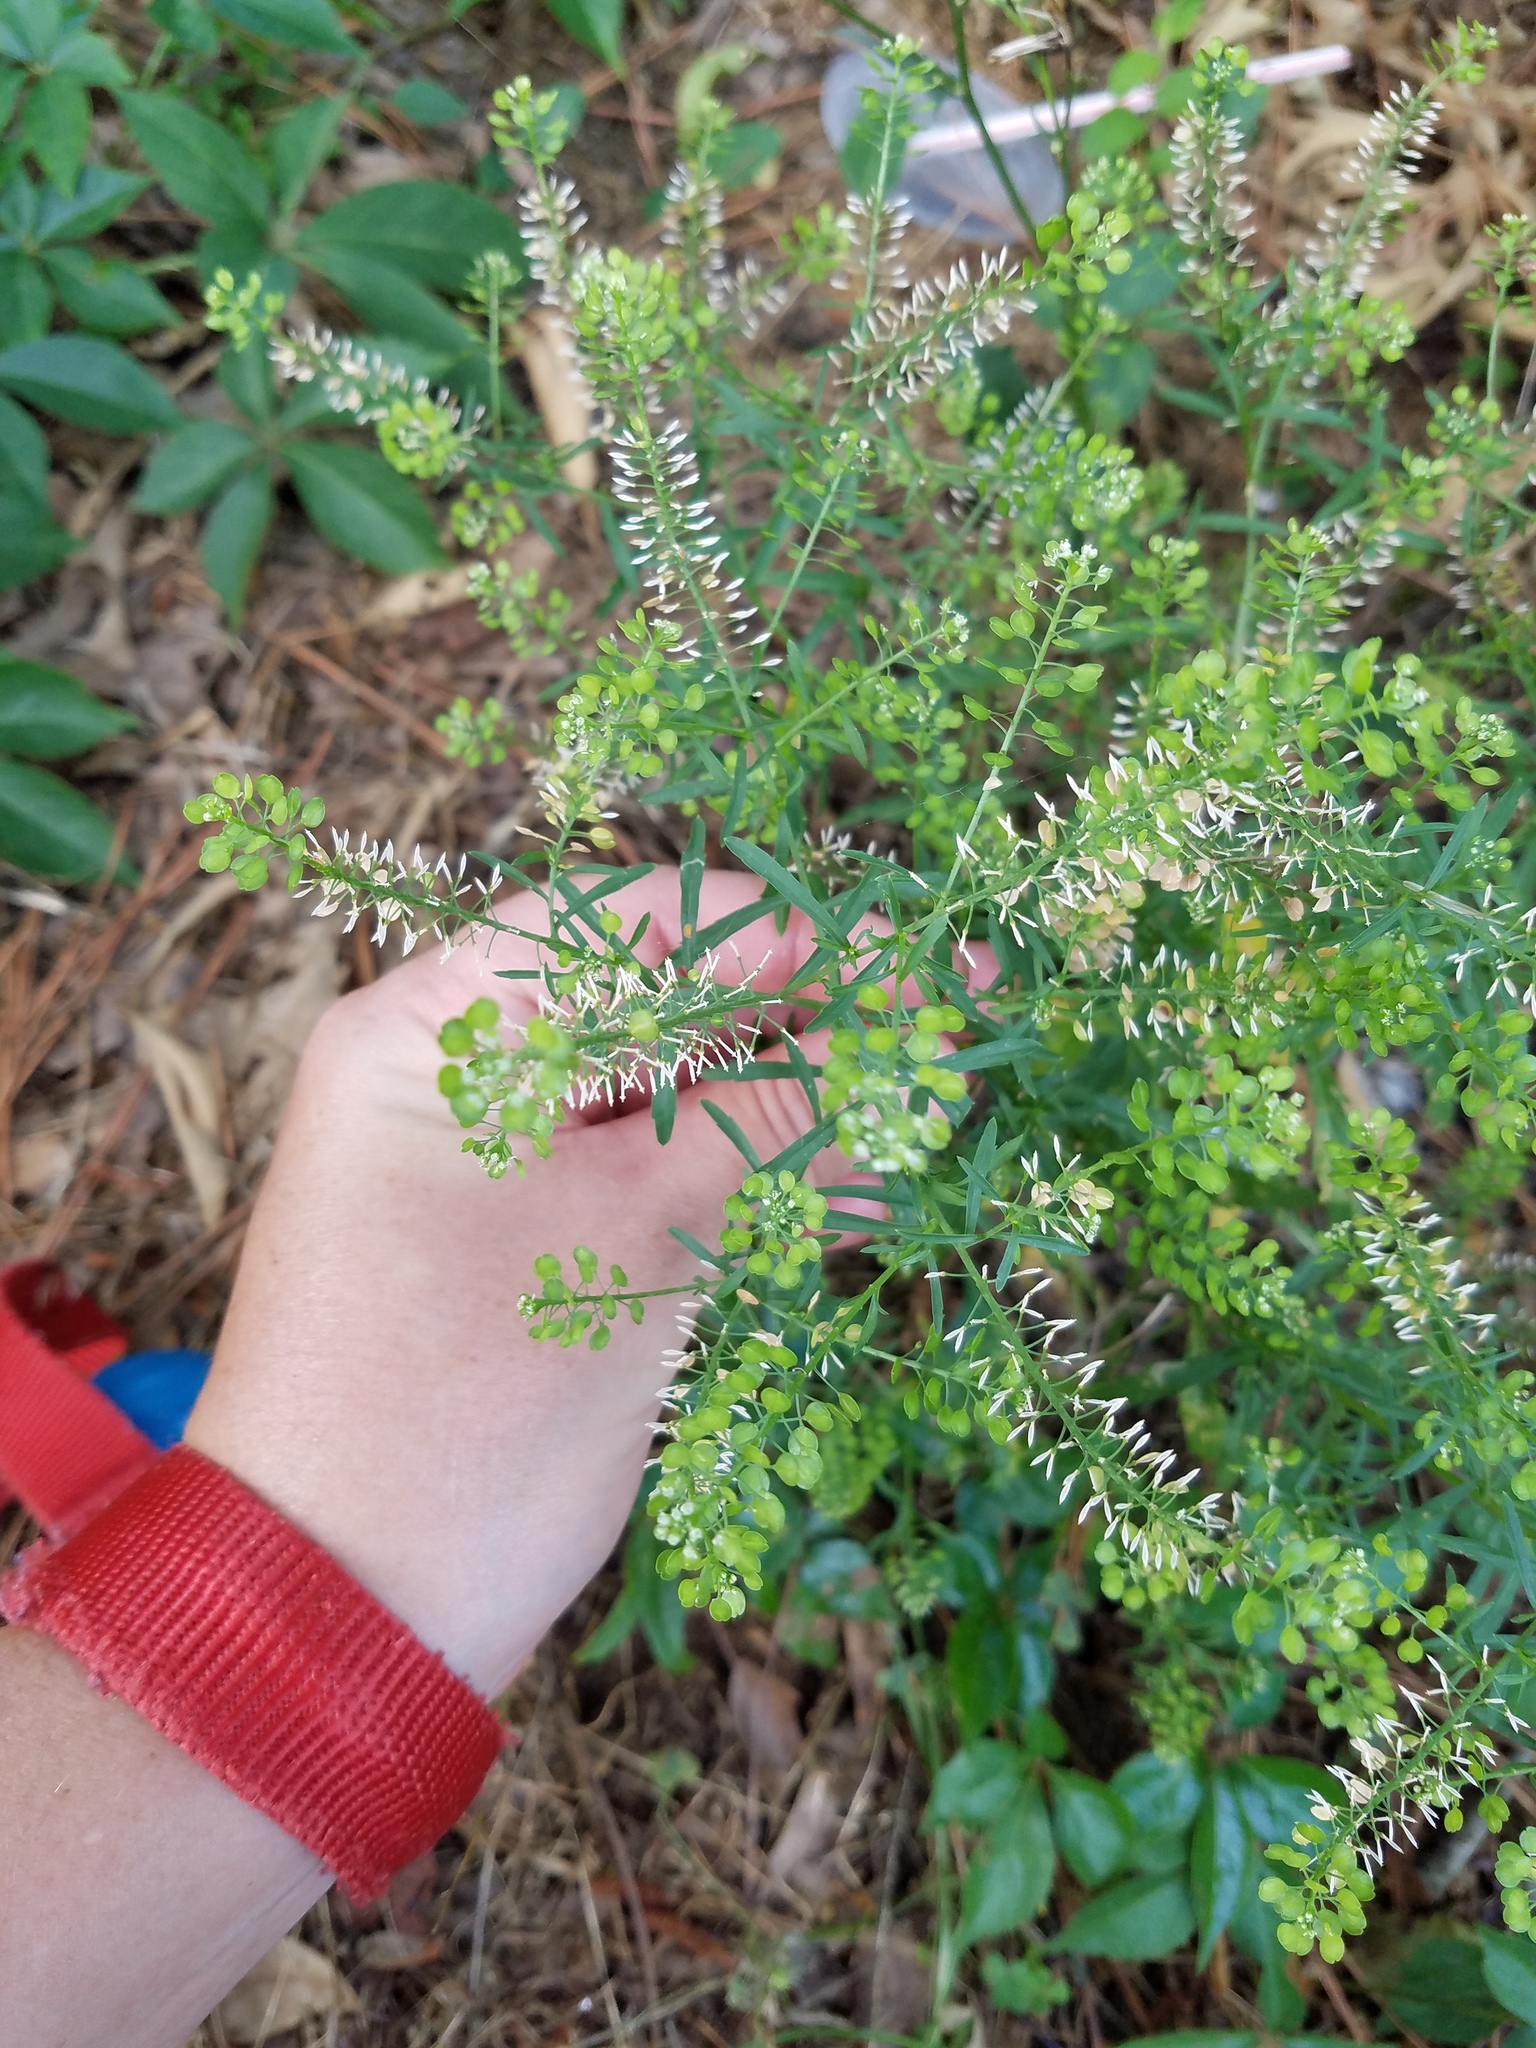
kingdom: Plantae
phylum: Tracheophyta
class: Magnoliopsida
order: Brassicales
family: Brassicaceae
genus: Lepidium
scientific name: Lepidium virginicum
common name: Least pepperwort
